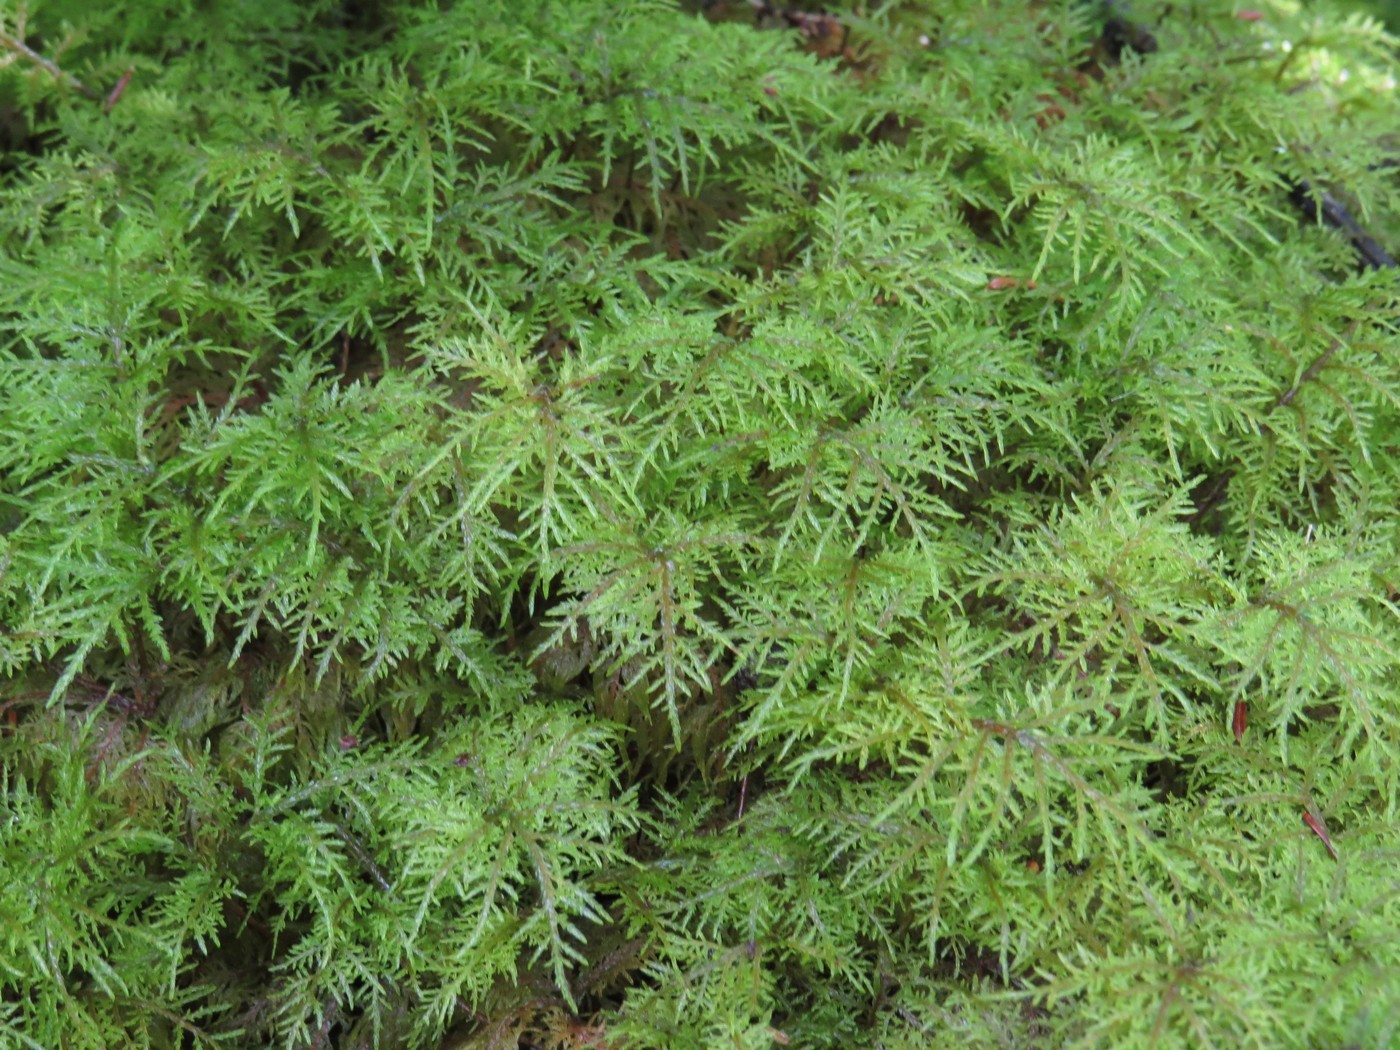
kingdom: Plantae
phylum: Bryophyta
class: Bryopsida
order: Hypnales
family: Hylocomiaceae
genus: Hylocomium
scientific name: Hylocomium splendens
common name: Stairstep moss
